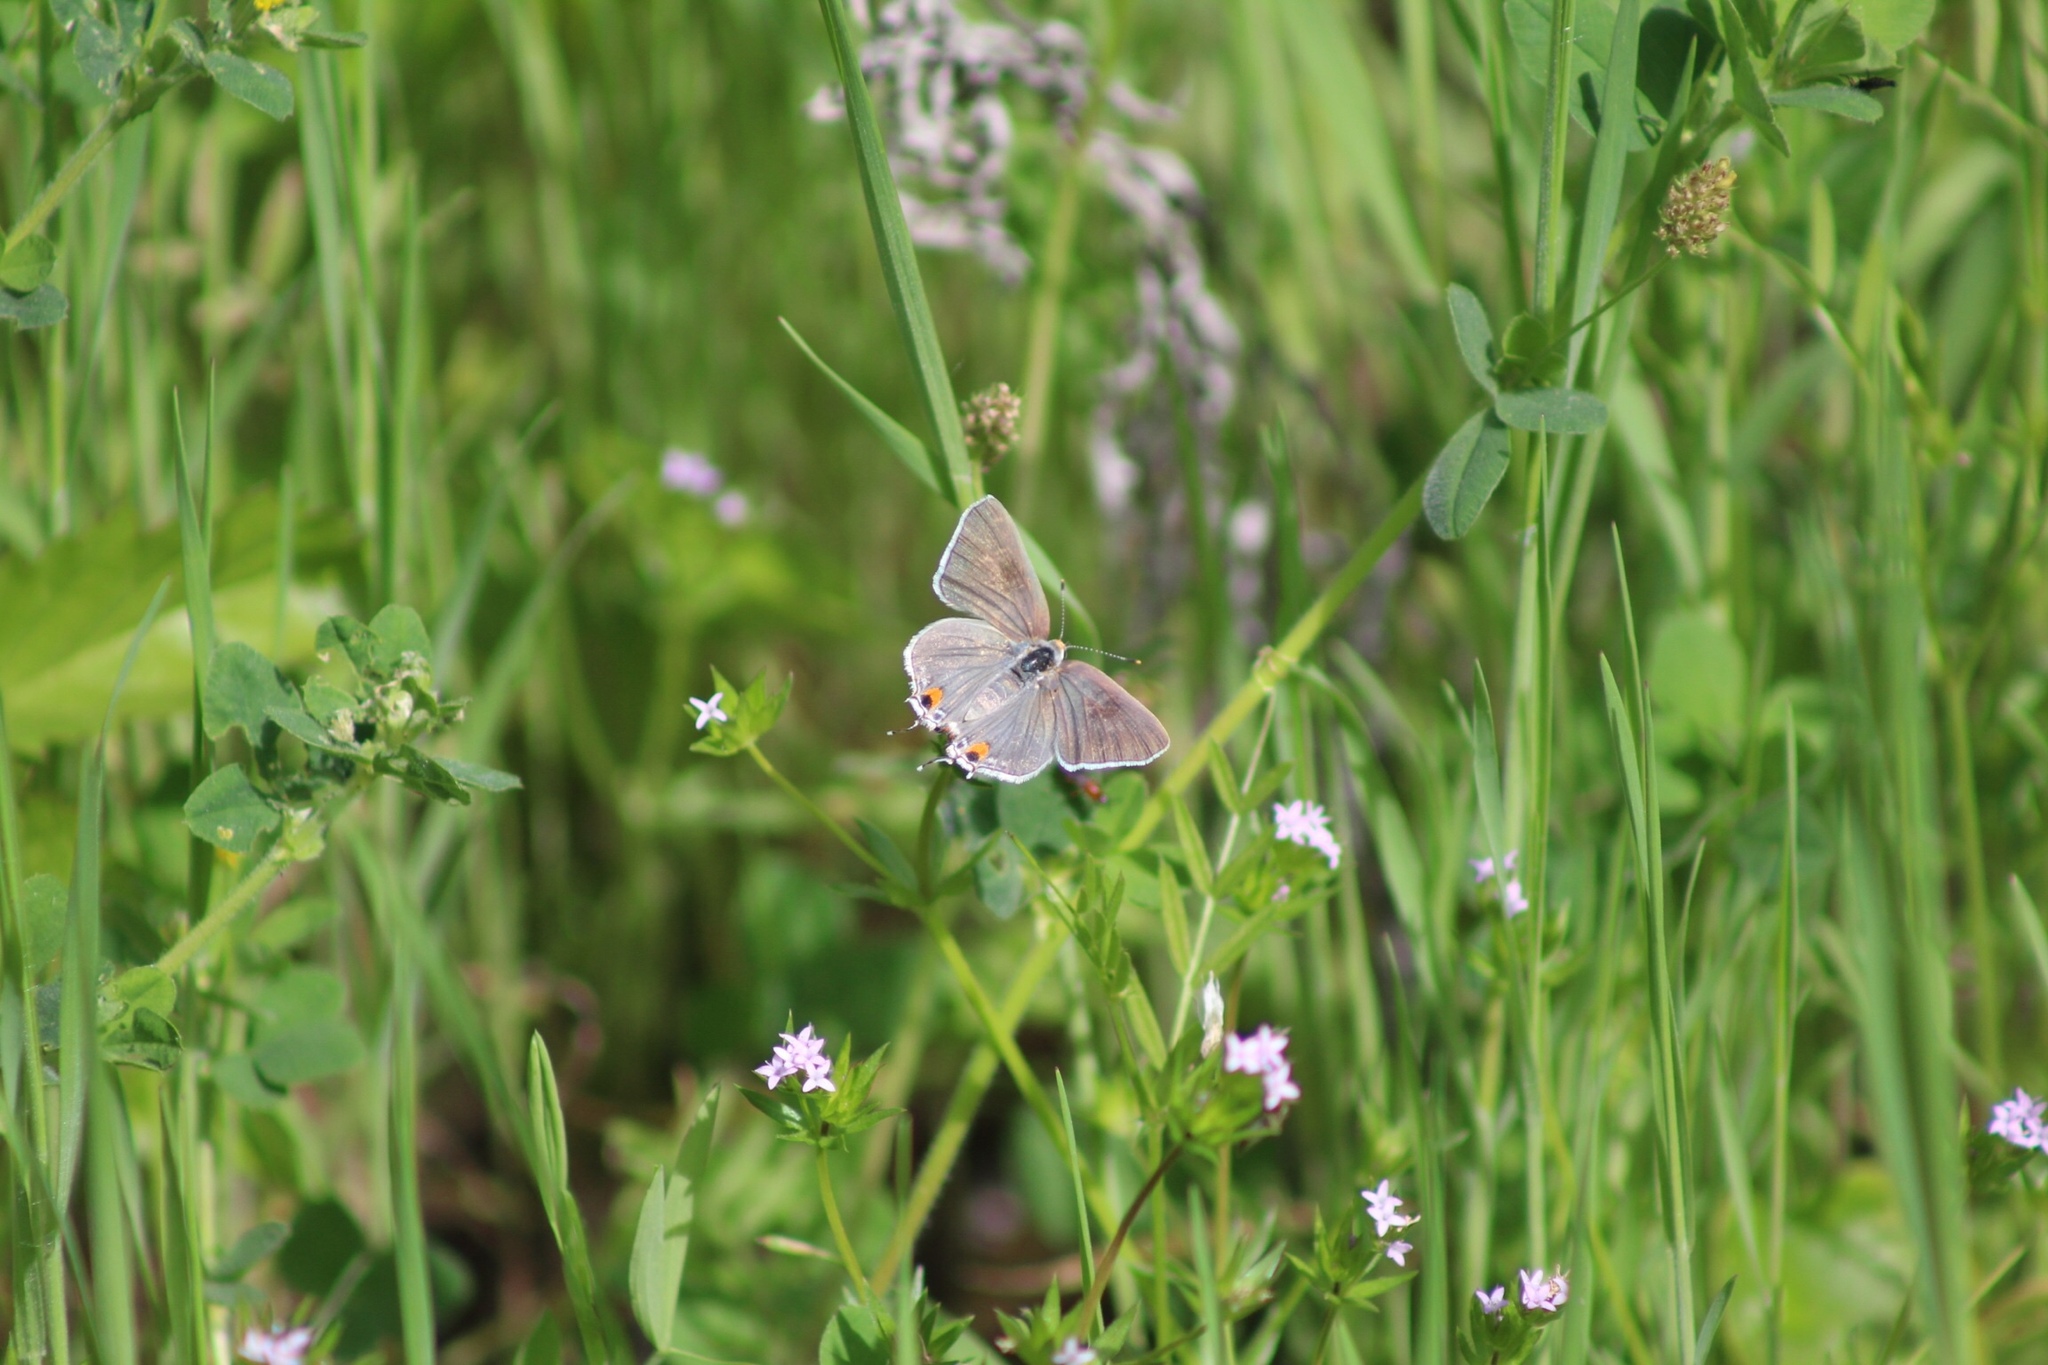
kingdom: Animalia
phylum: Arthropoda
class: Insecta
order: Lepidoptera
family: Lycaenidae
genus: Strymon
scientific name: Strymon melinus
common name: Gray hairstreak
